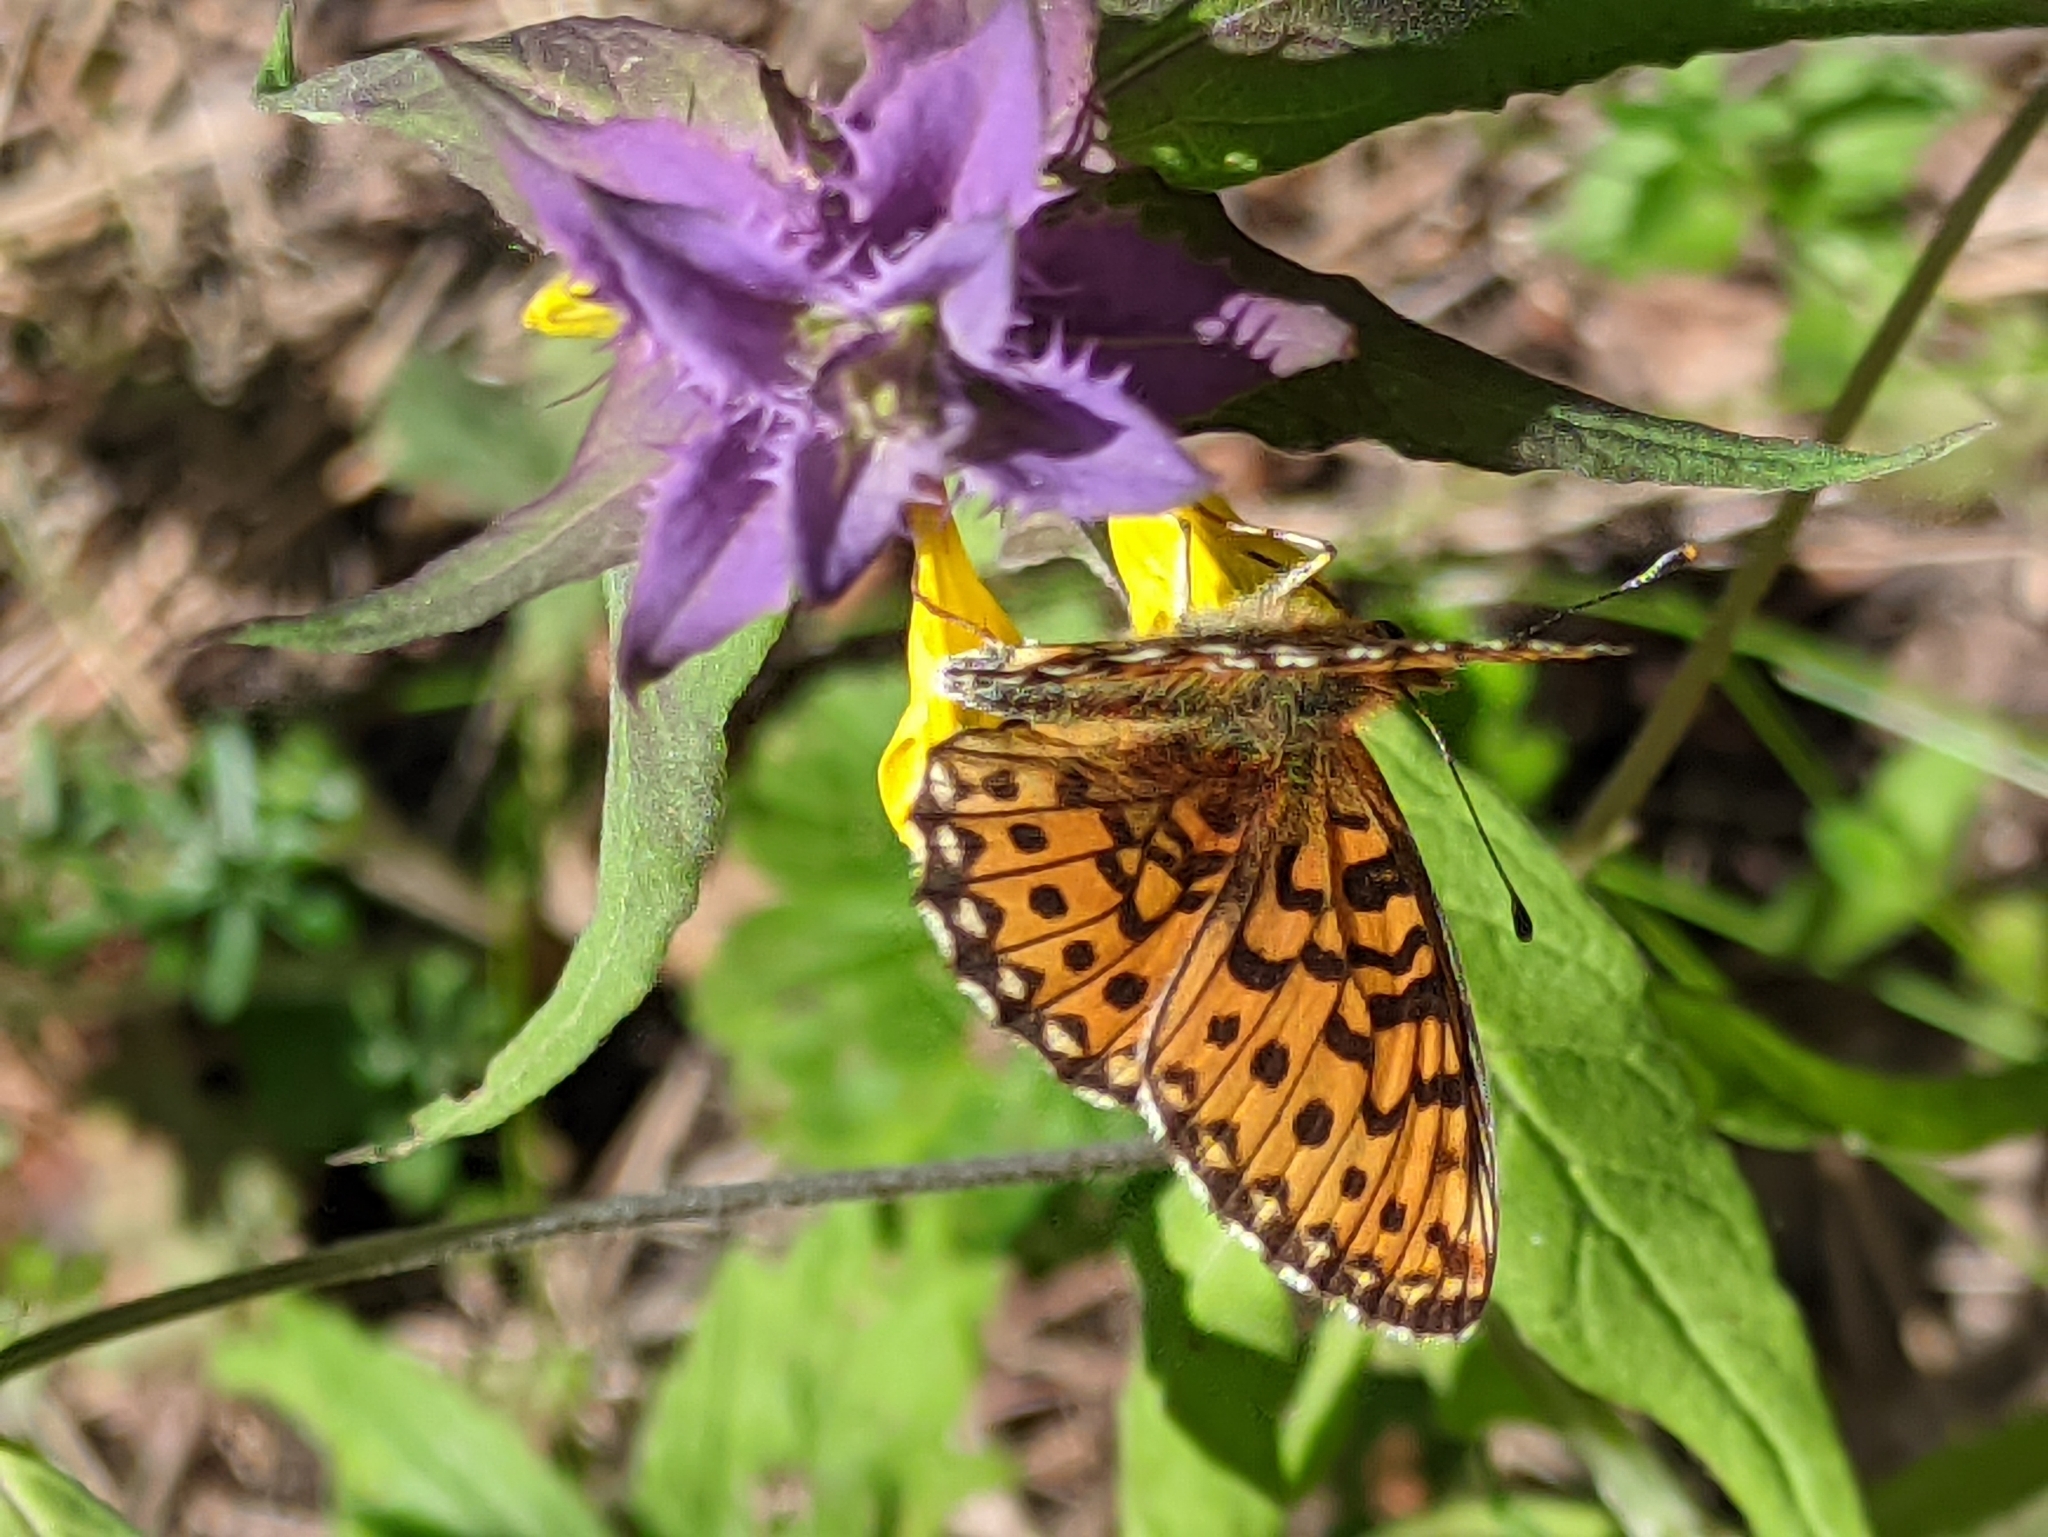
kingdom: Animalia
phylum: Arthropoda
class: Insecta
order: Lepidoptera
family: Nymphalidae
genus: Clossiana
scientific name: Clossiana euphrosyne
